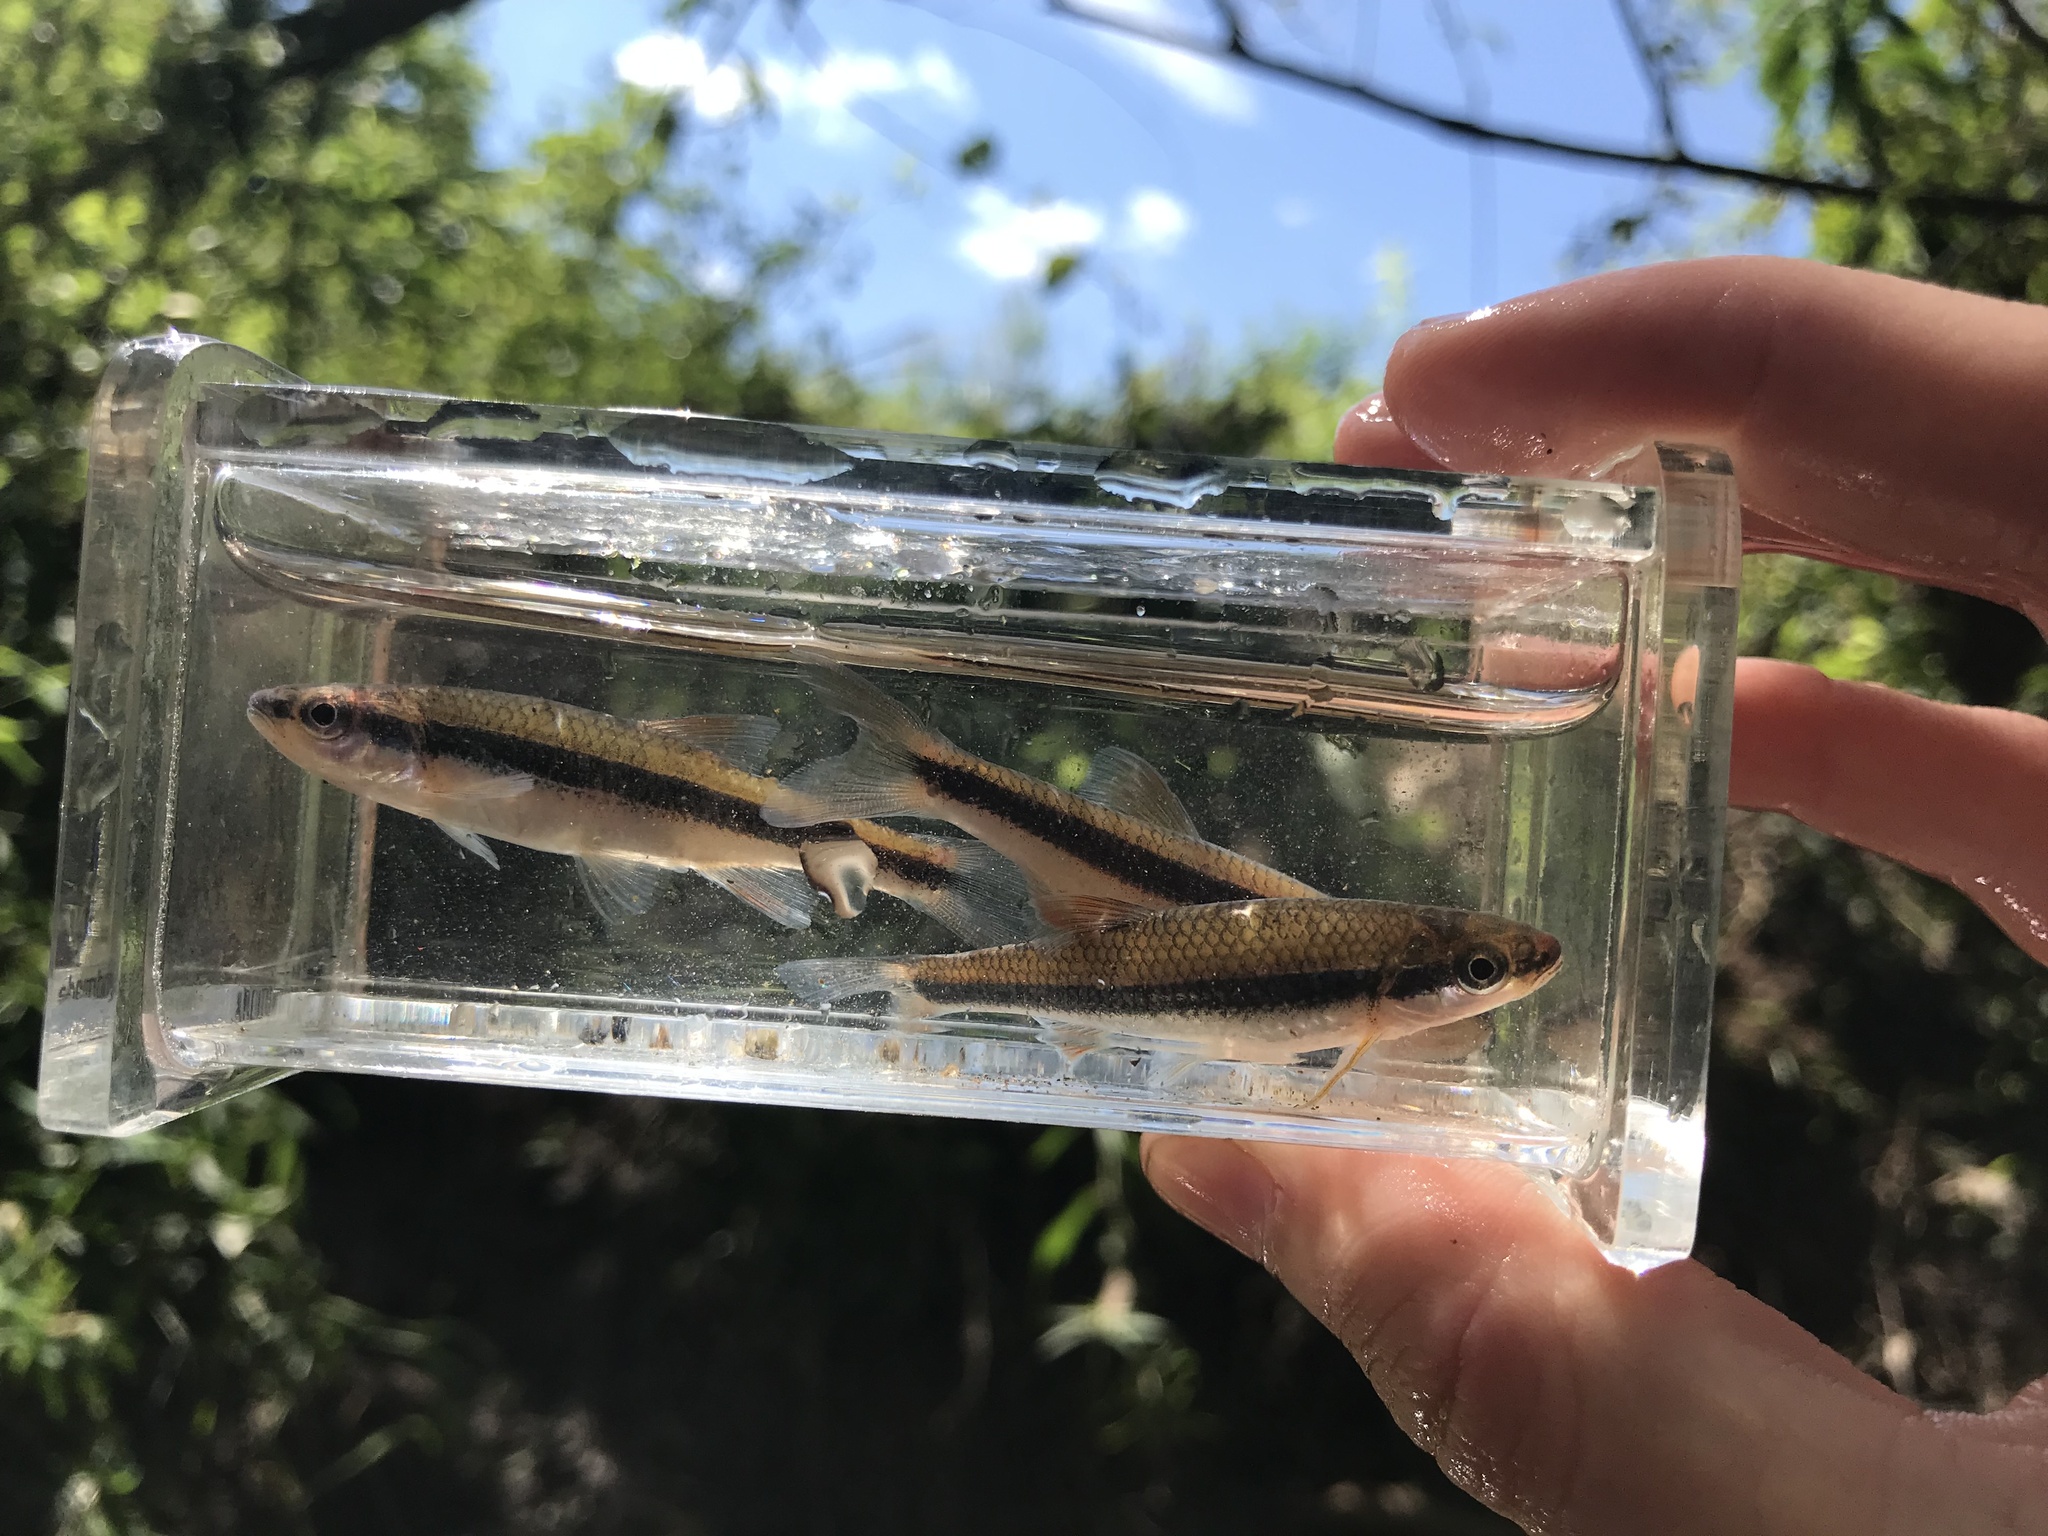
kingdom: Animalia
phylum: Chordata
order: Cypriniformes
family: Cyprinidae
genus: Notropis
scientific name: Notropis lutipinnis
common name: Yellowfin shiner
